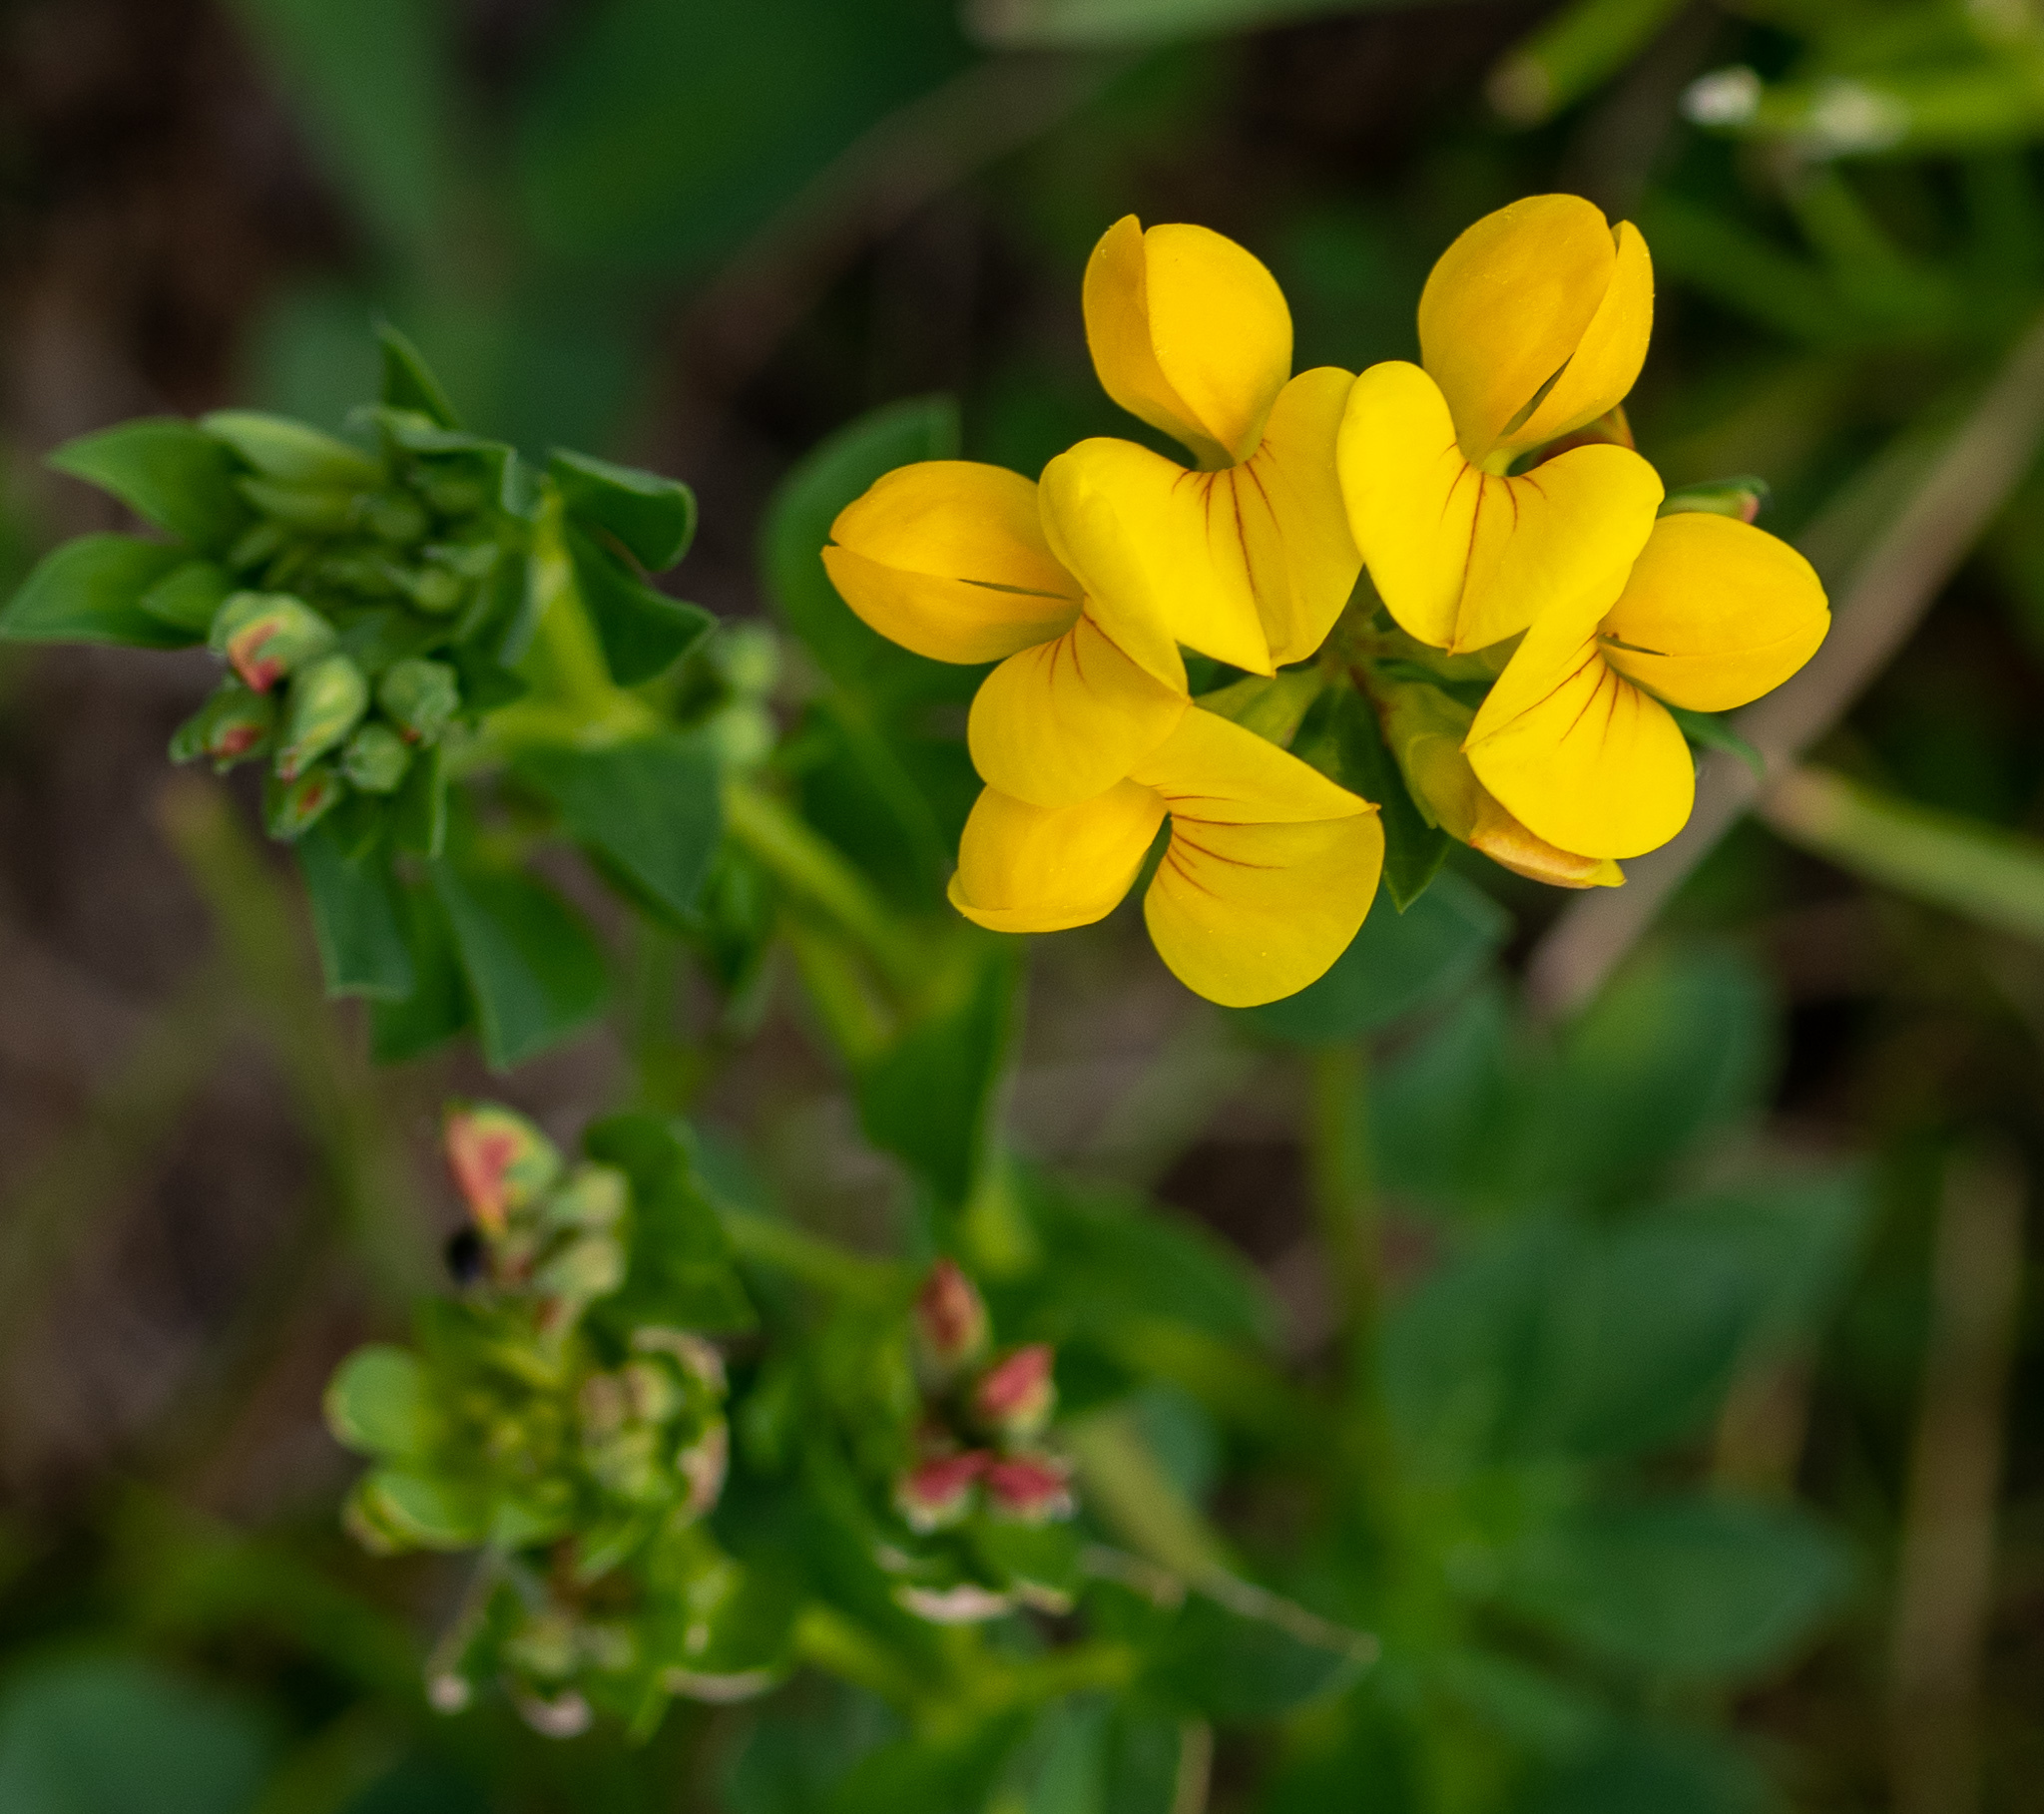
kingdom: Plantae
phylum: Tracheophyta
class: Magnoliopsida
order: Fabales
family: Fabaceae
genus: Lotus
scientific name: Lotus corniculatus
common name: Common bird's-foot-trefoil
